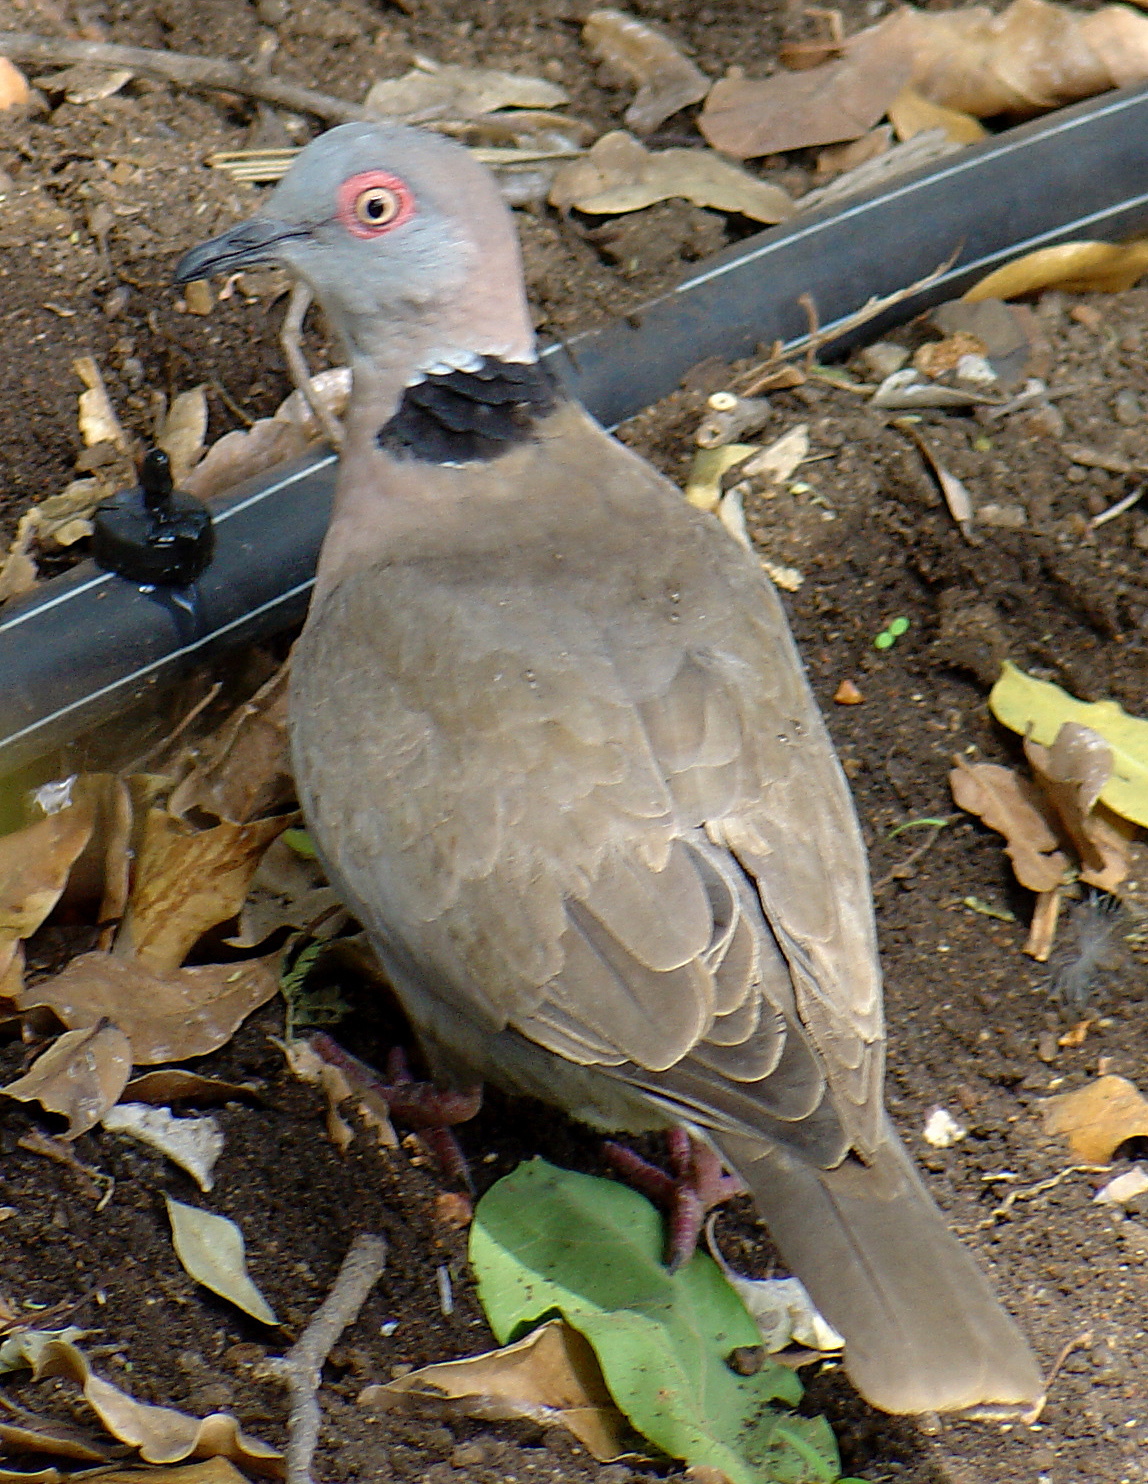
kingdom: Animalia
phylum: Chordata
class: Aves
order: Columbiformes
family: Columbidae
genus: Streptopelia
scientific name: Streptopelia decipiens
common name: Mourning collared dove
